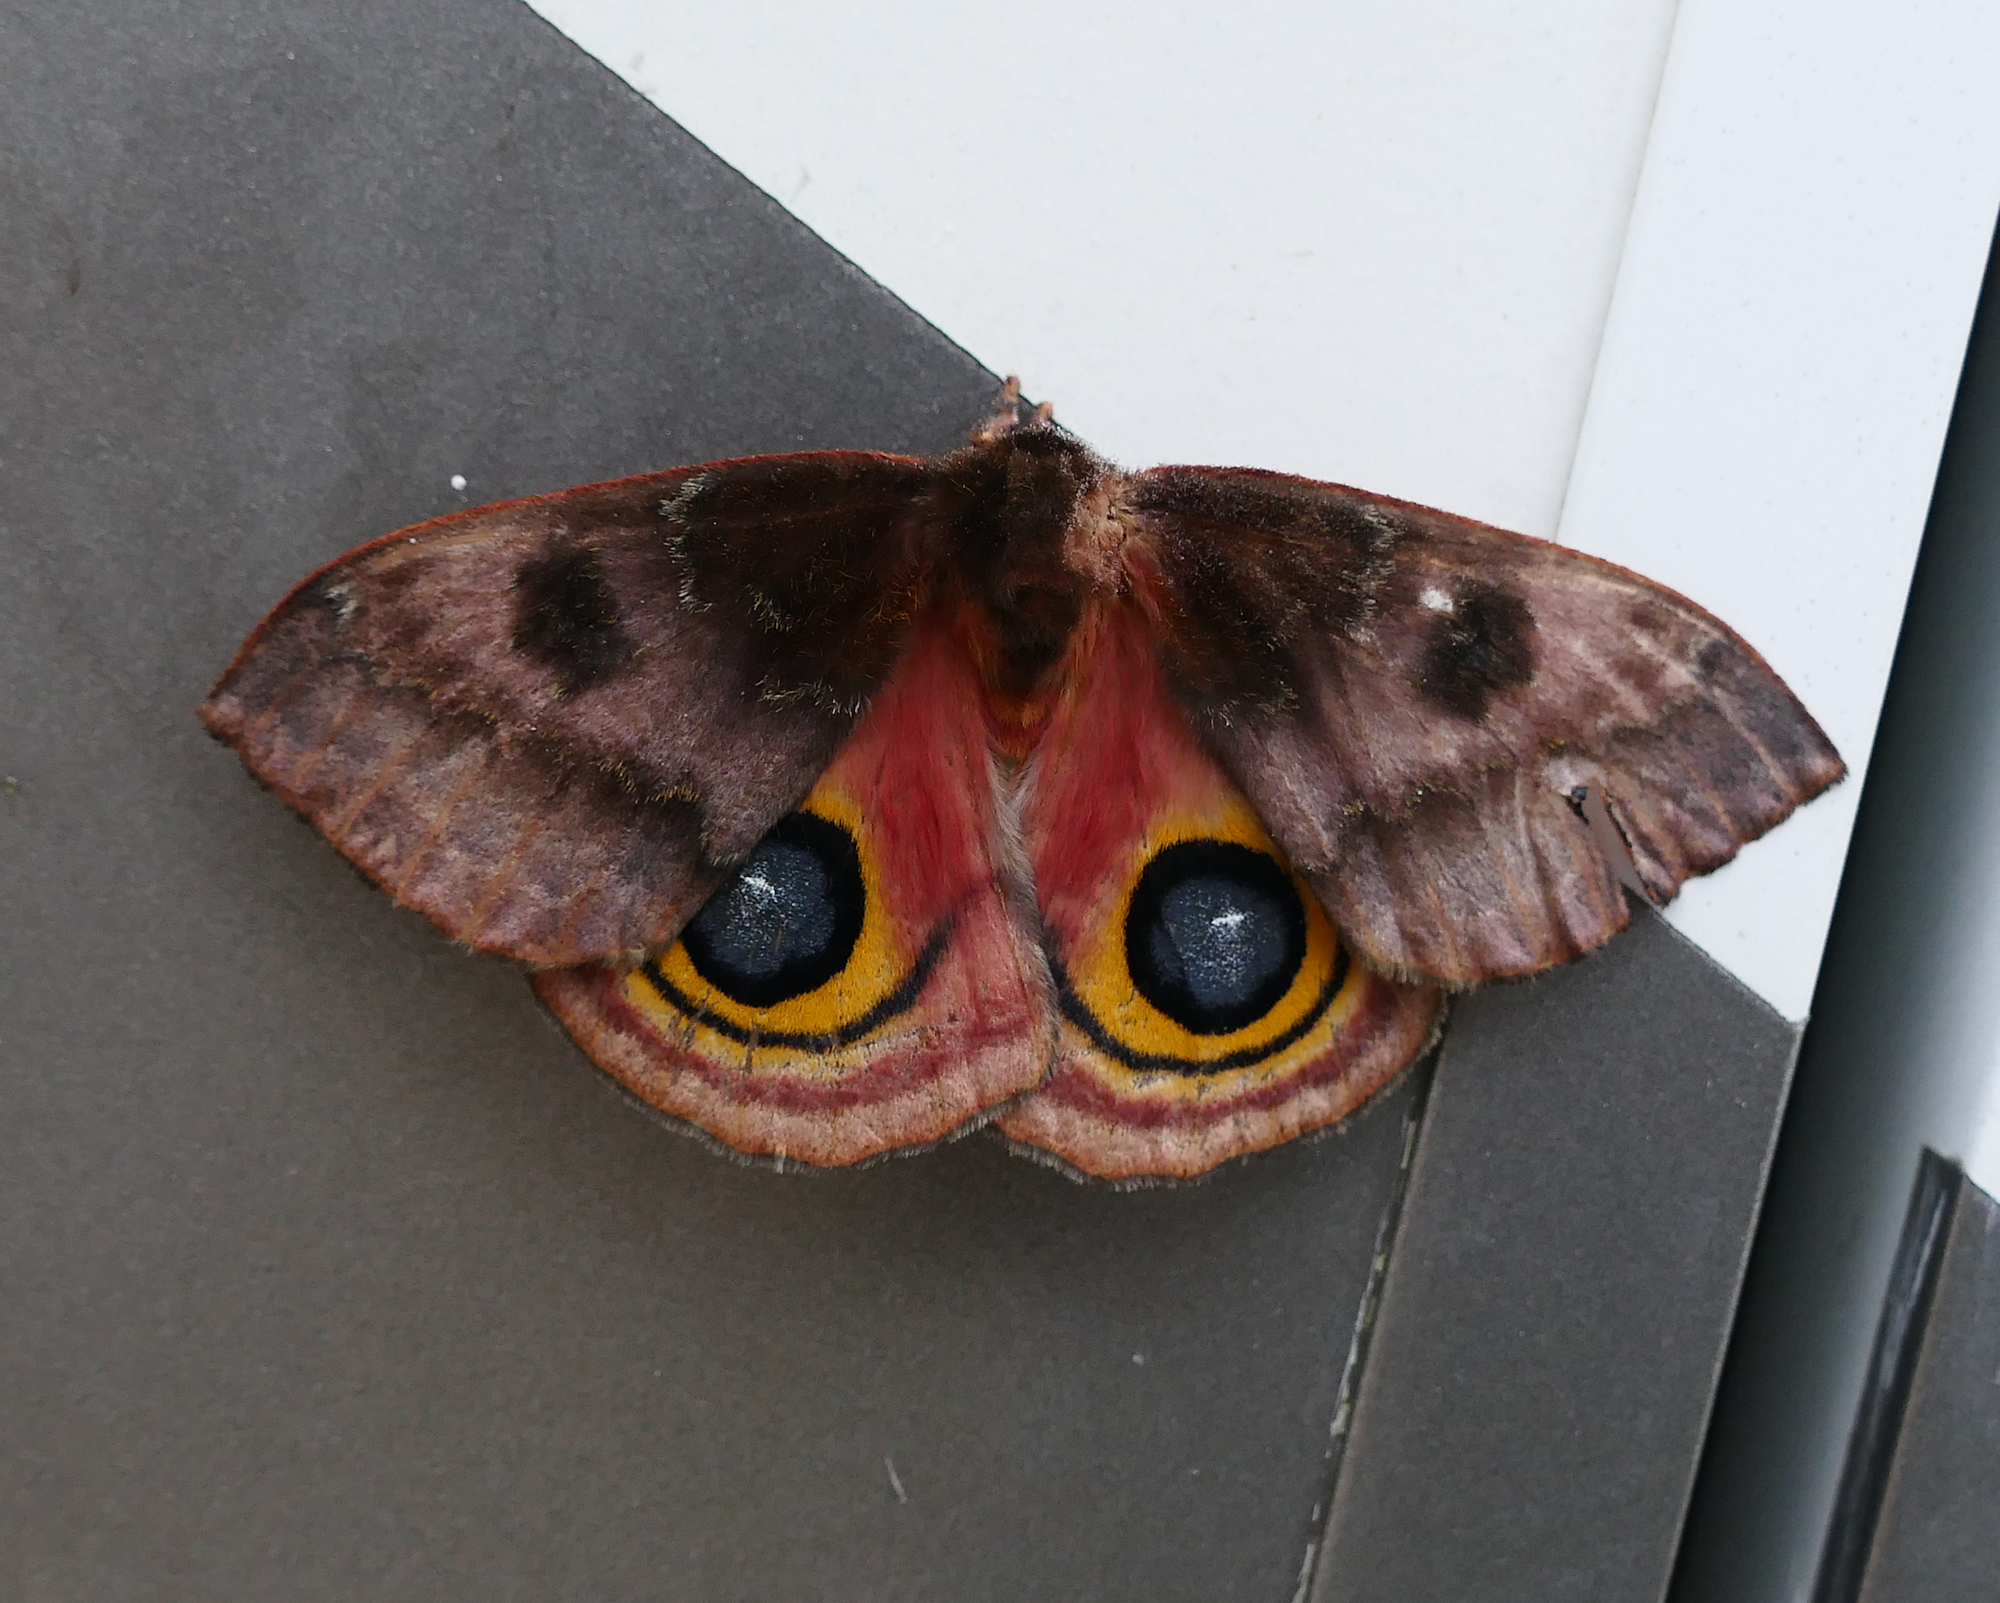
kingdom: Animalia
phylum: Arthropoda
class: Insecta
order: Lepidoptera
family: Saturniidae
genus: Automeris
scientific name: Automeris io
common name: Io moth
